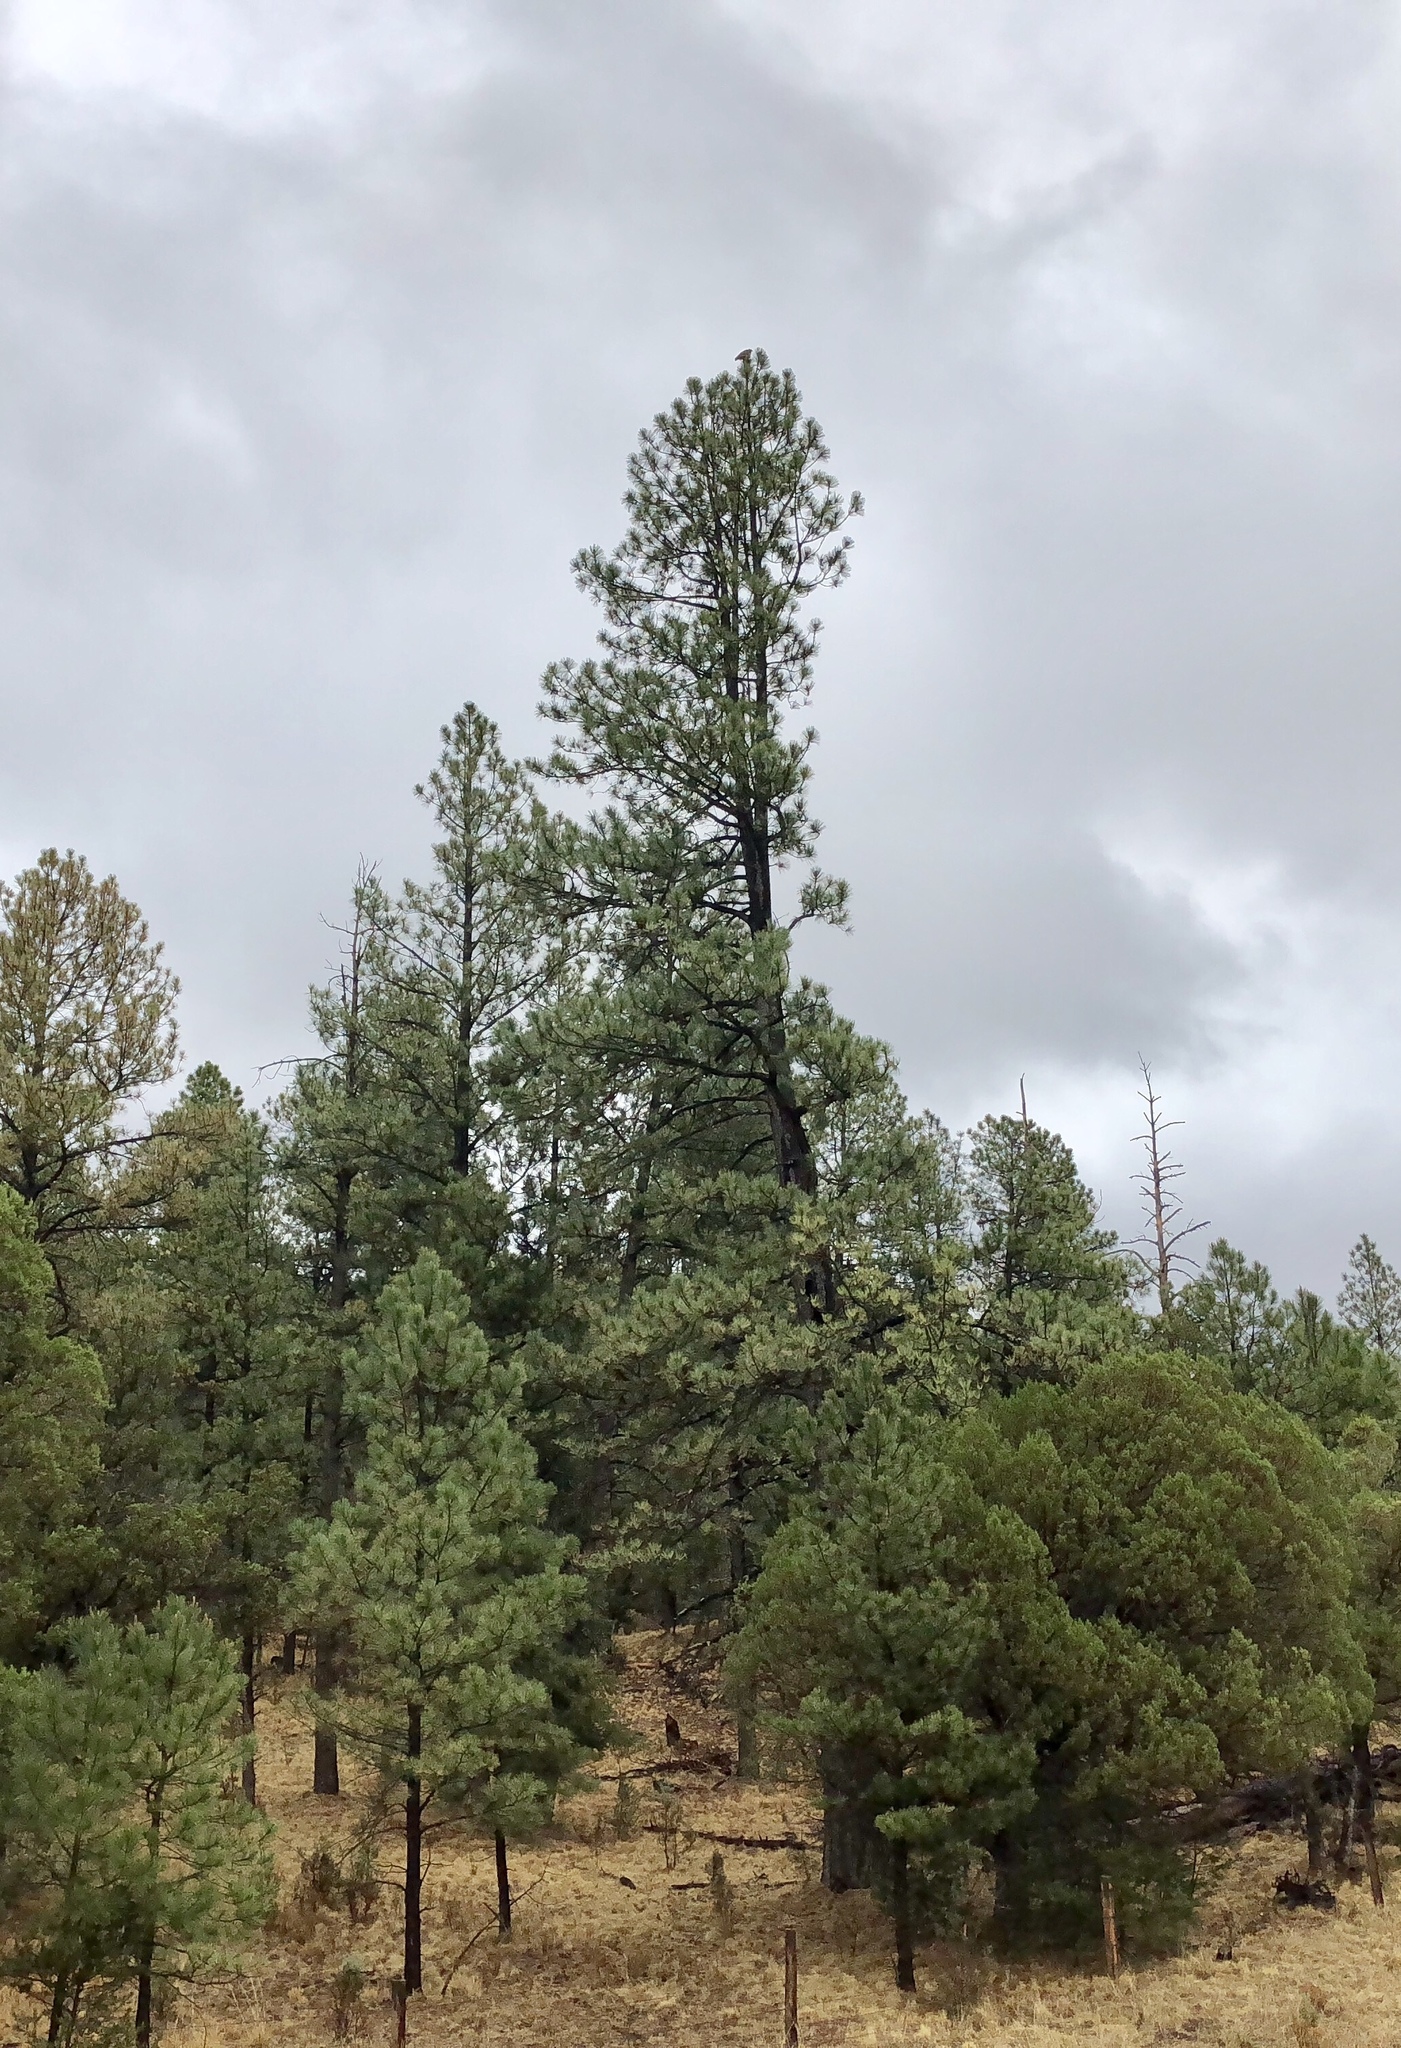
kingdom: Plantae
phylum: Tracheophyta
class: Pinopsida
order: Pinales
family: Pinaceae
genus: Pinus
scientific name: Pinus ponderosa
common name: Western yellow-pine
